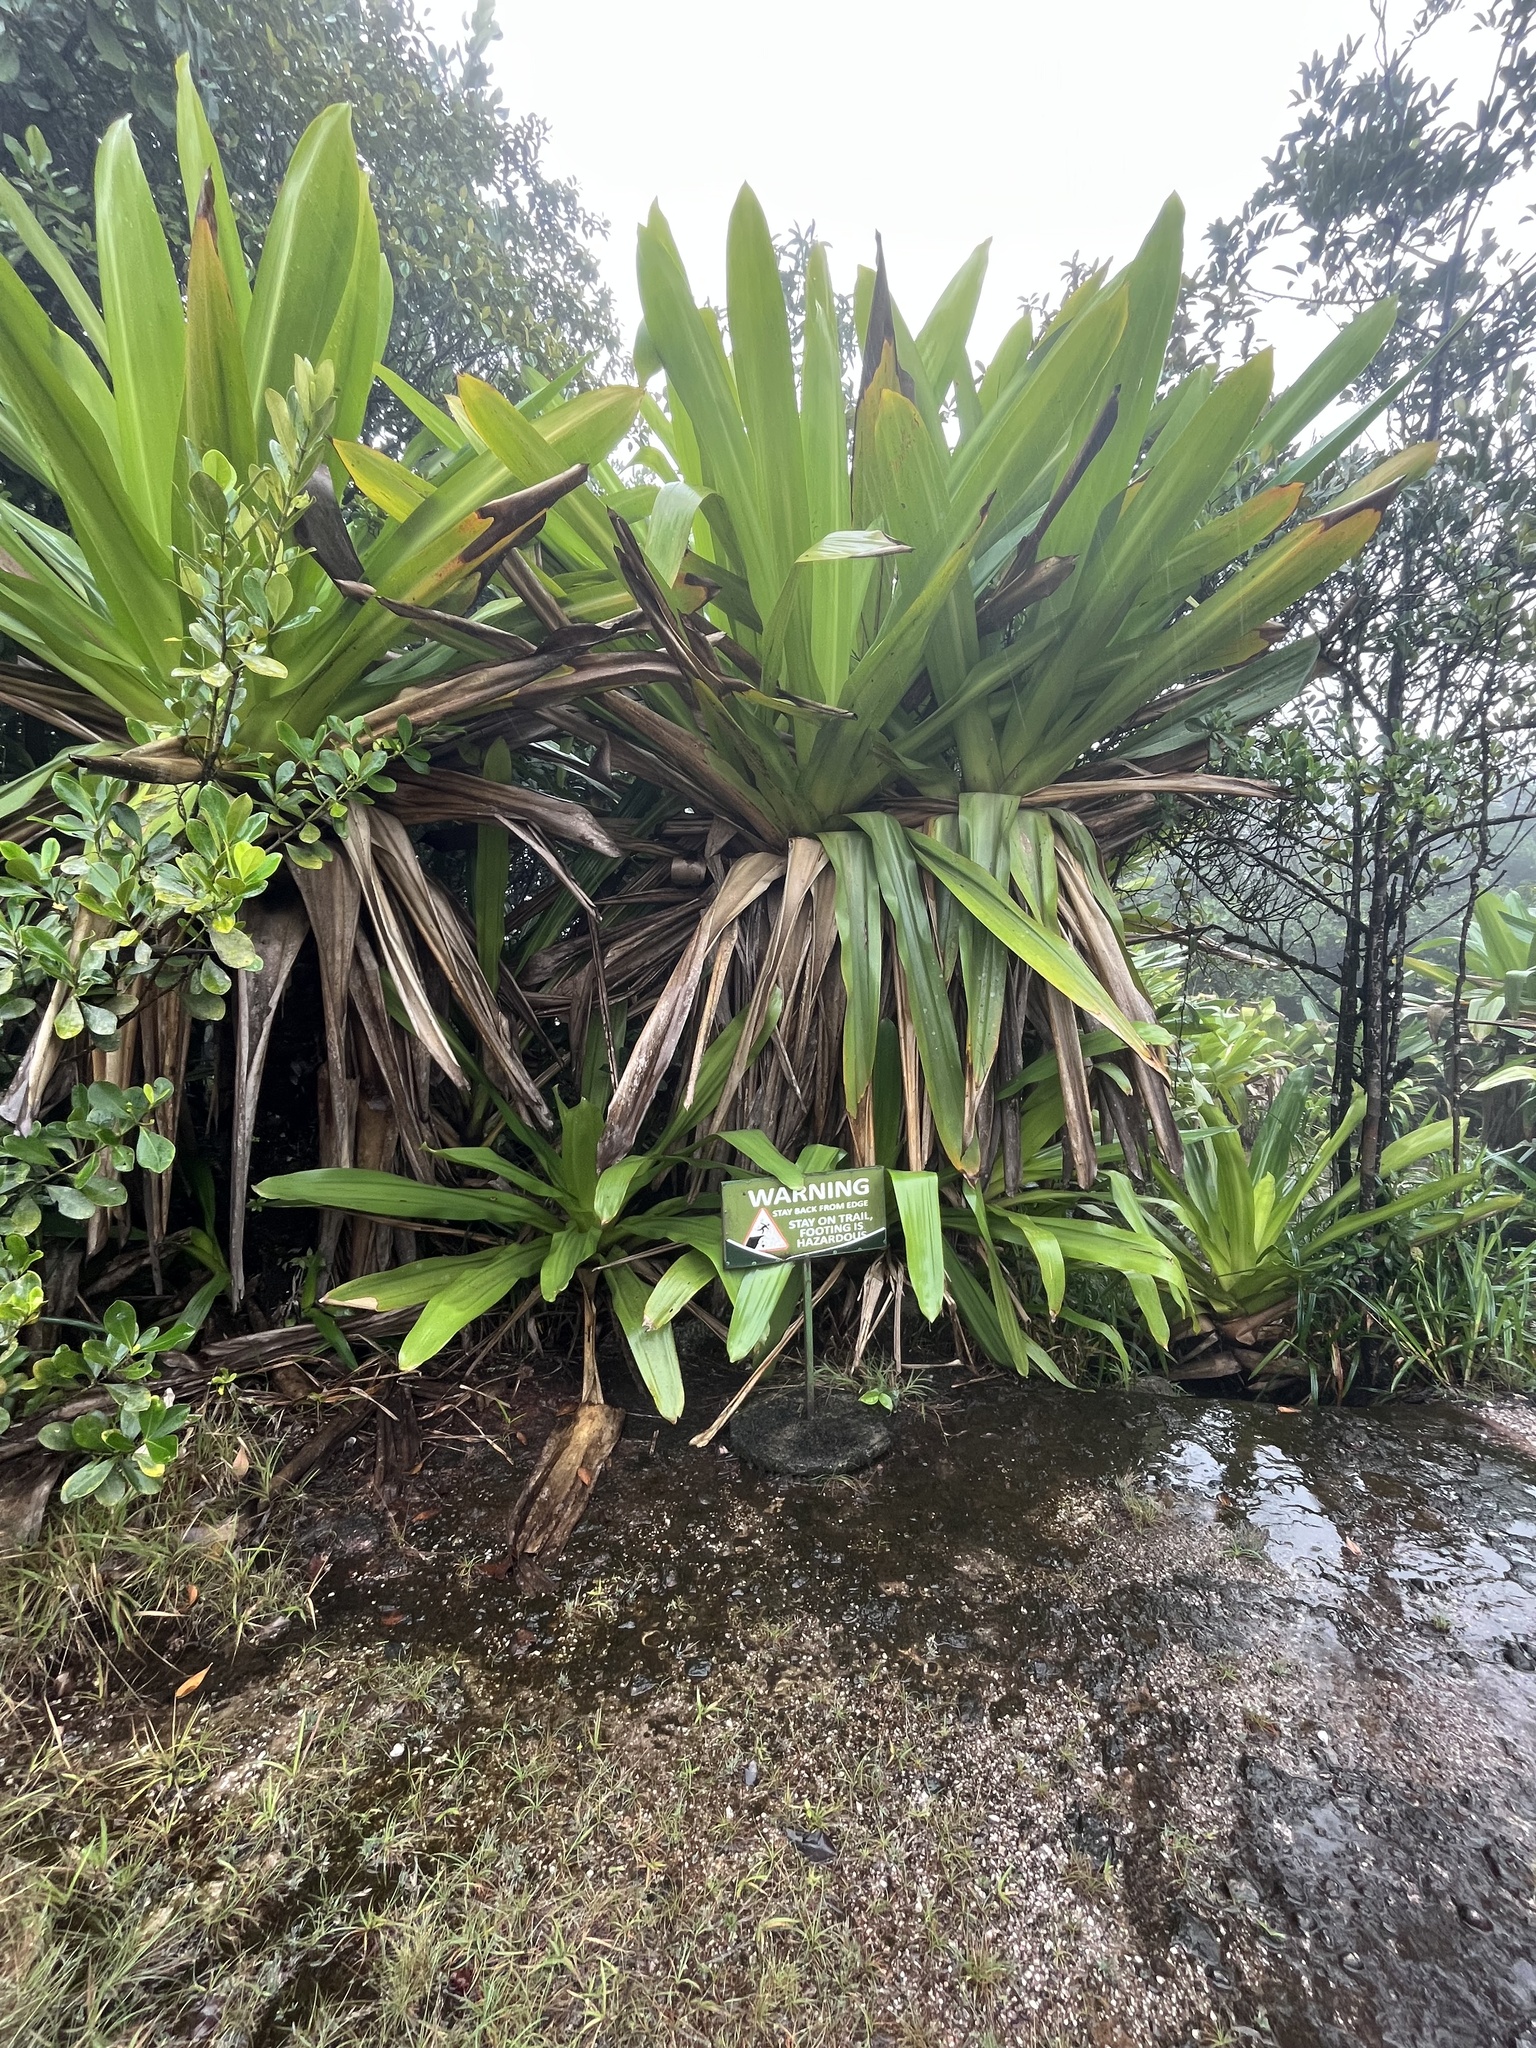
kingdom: Plantae
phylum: Tracheophyta
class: Liliopsida
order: Poales
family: Bromeliaceae
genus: Brocchinia
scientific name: Brocchinia micrantha
